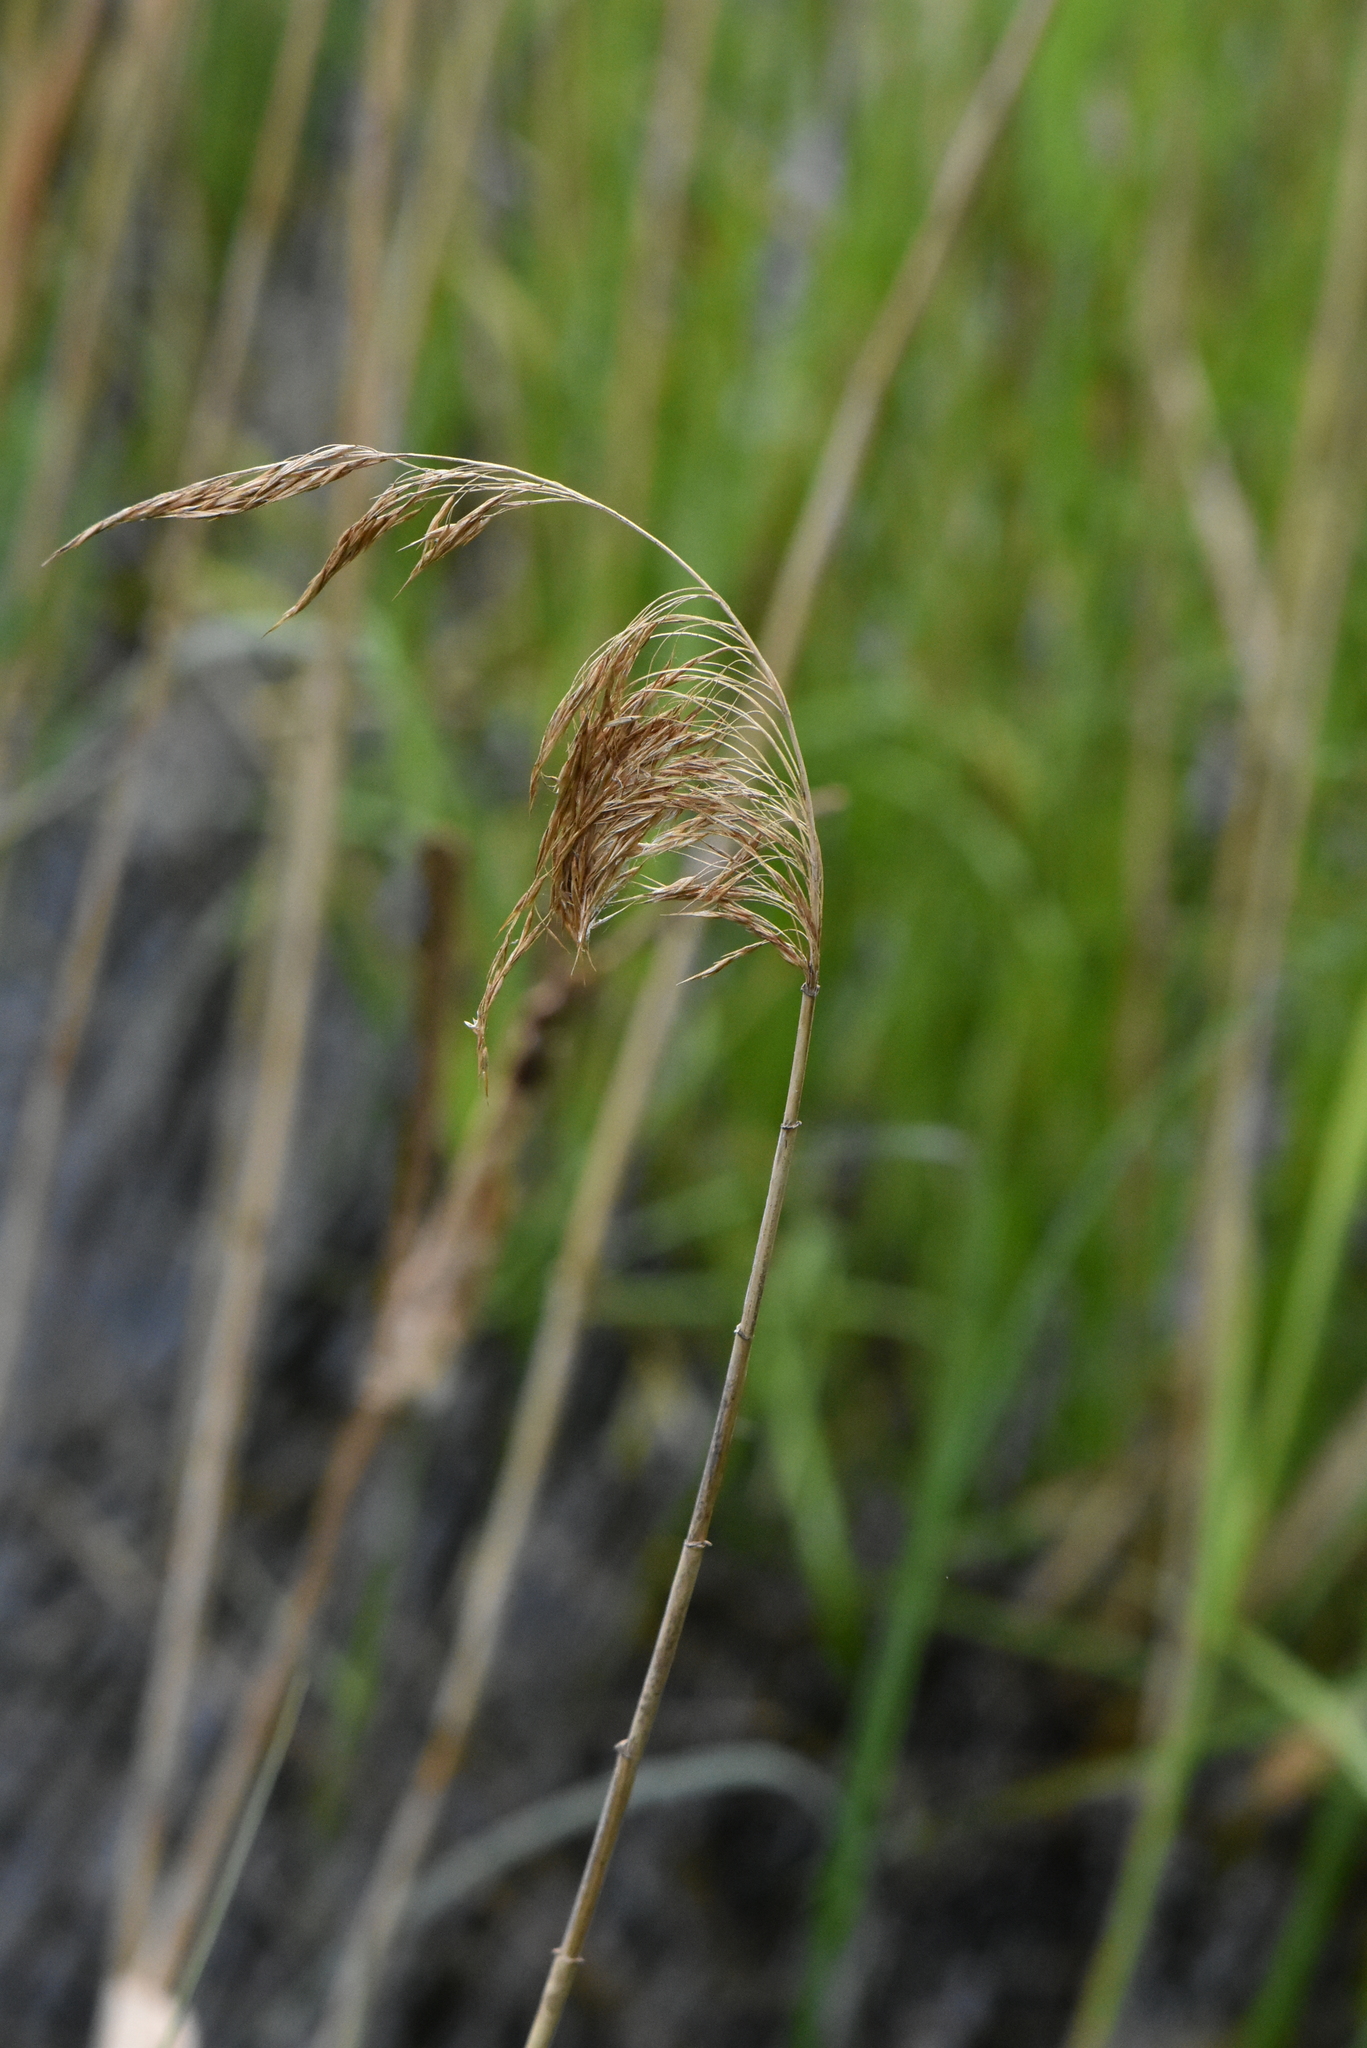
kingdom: Plantae
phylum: Tracheophyta
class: Liliopsida
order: Poales
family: Poaceae
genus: Phragmites
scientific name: Phragmites australis
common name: Common reed
